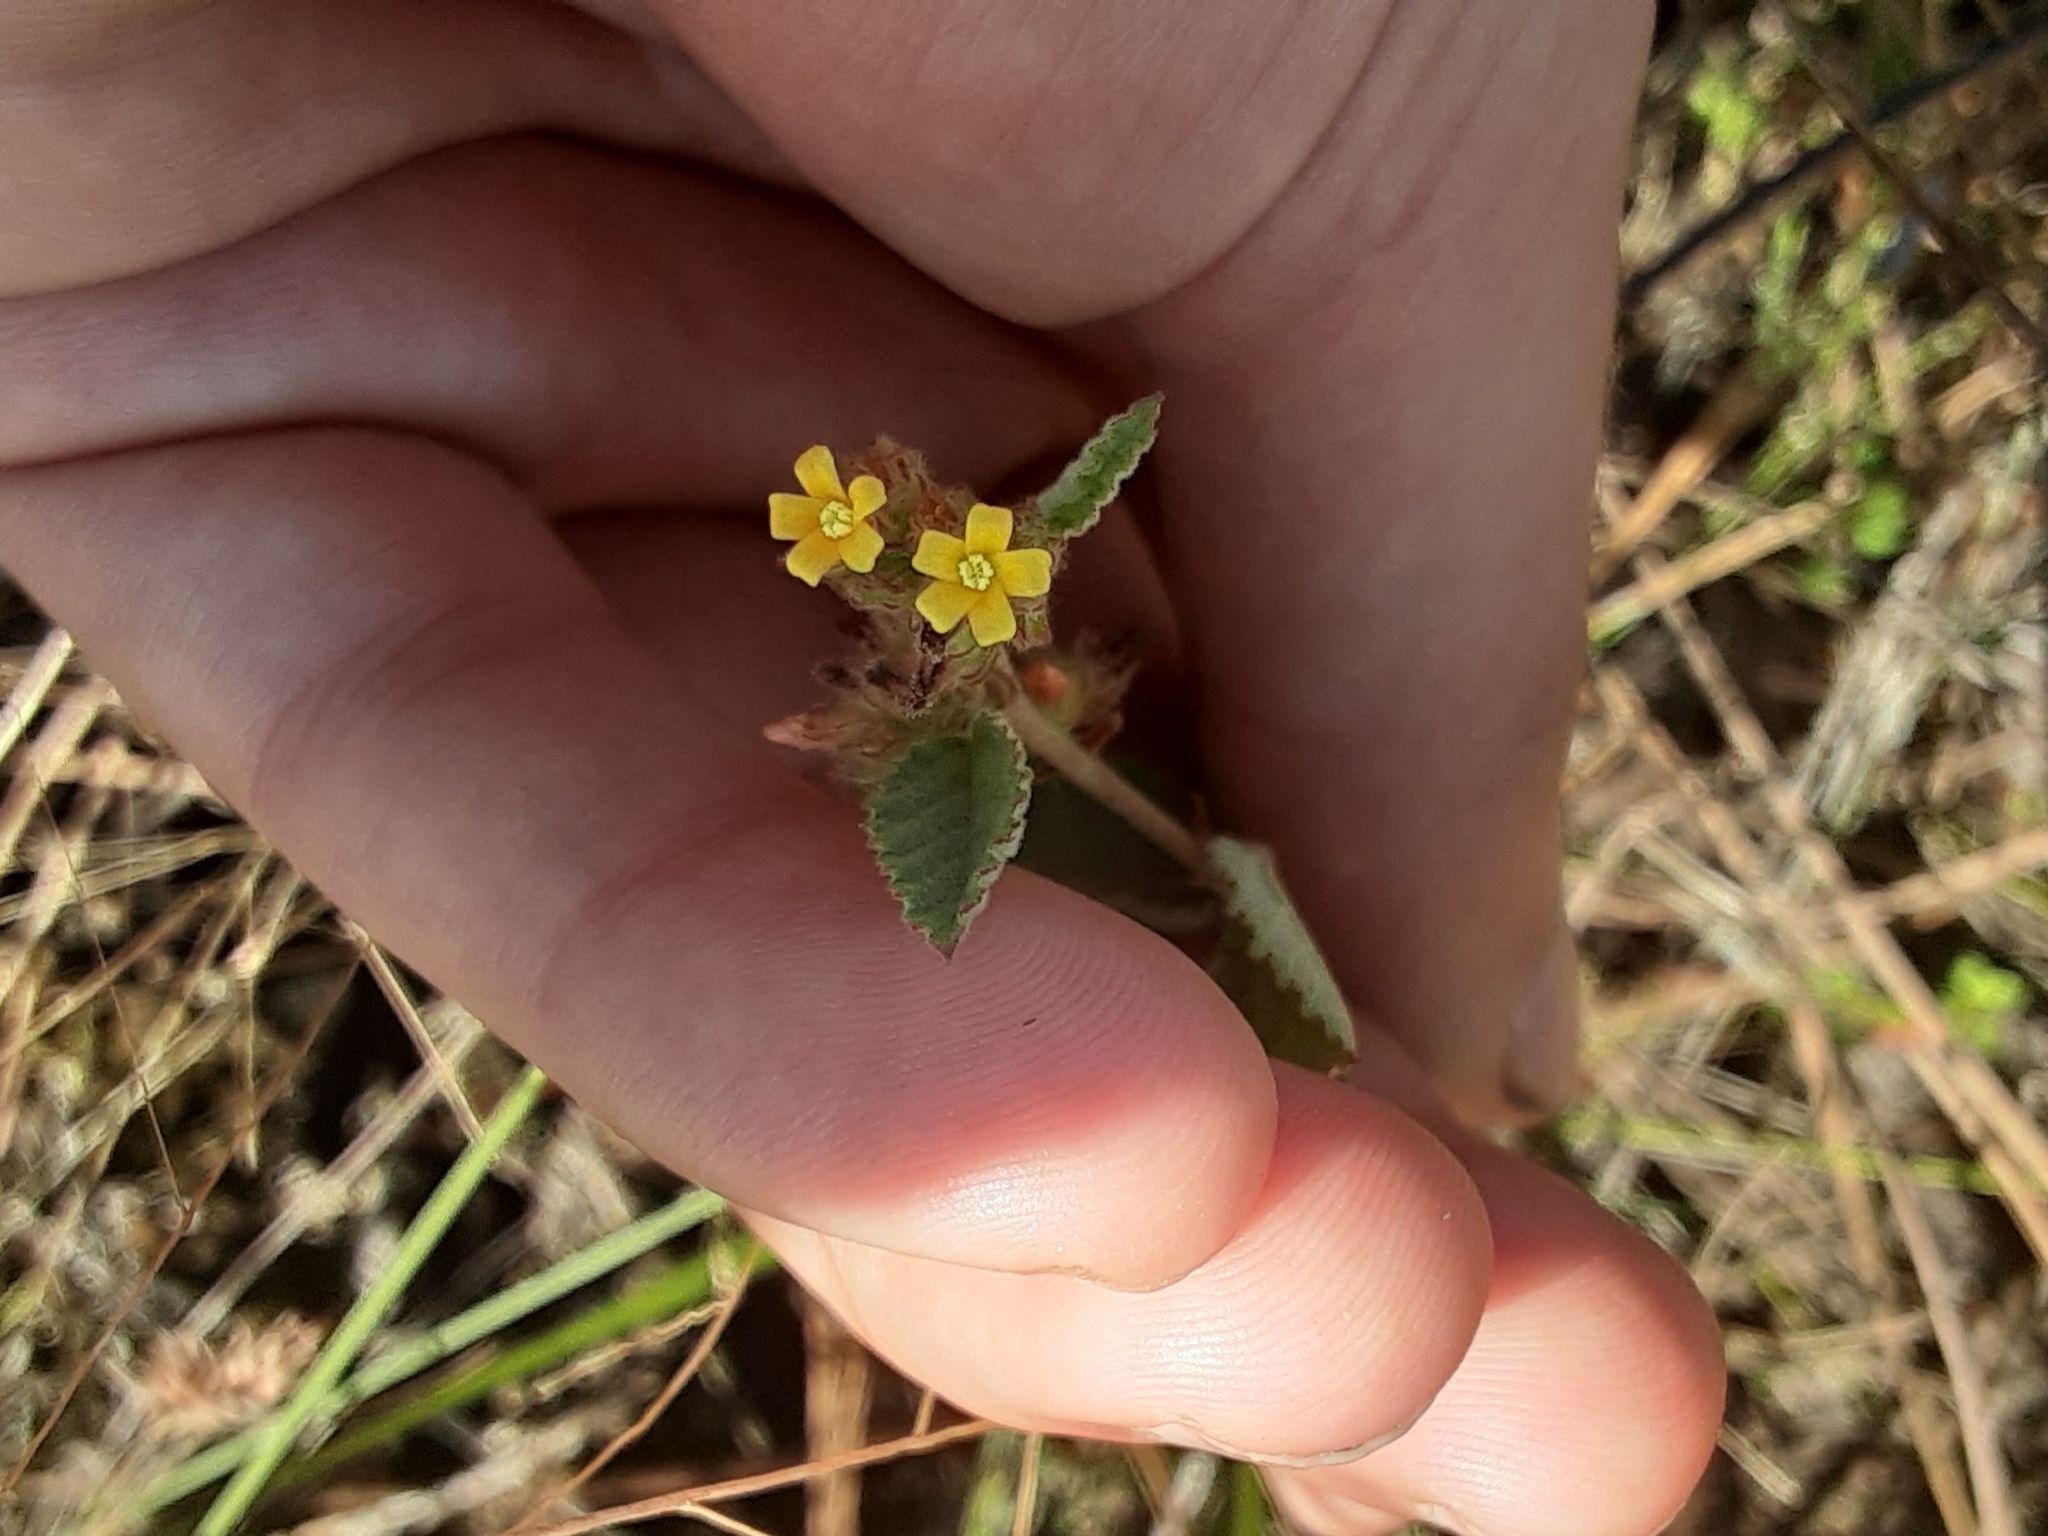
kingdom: Plantae
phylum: Tracheophyta
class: Magnoliopsida
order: Malvales
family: Malvaceae
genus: Waltheria
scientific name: Waltheria indica
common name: Leather-coat
